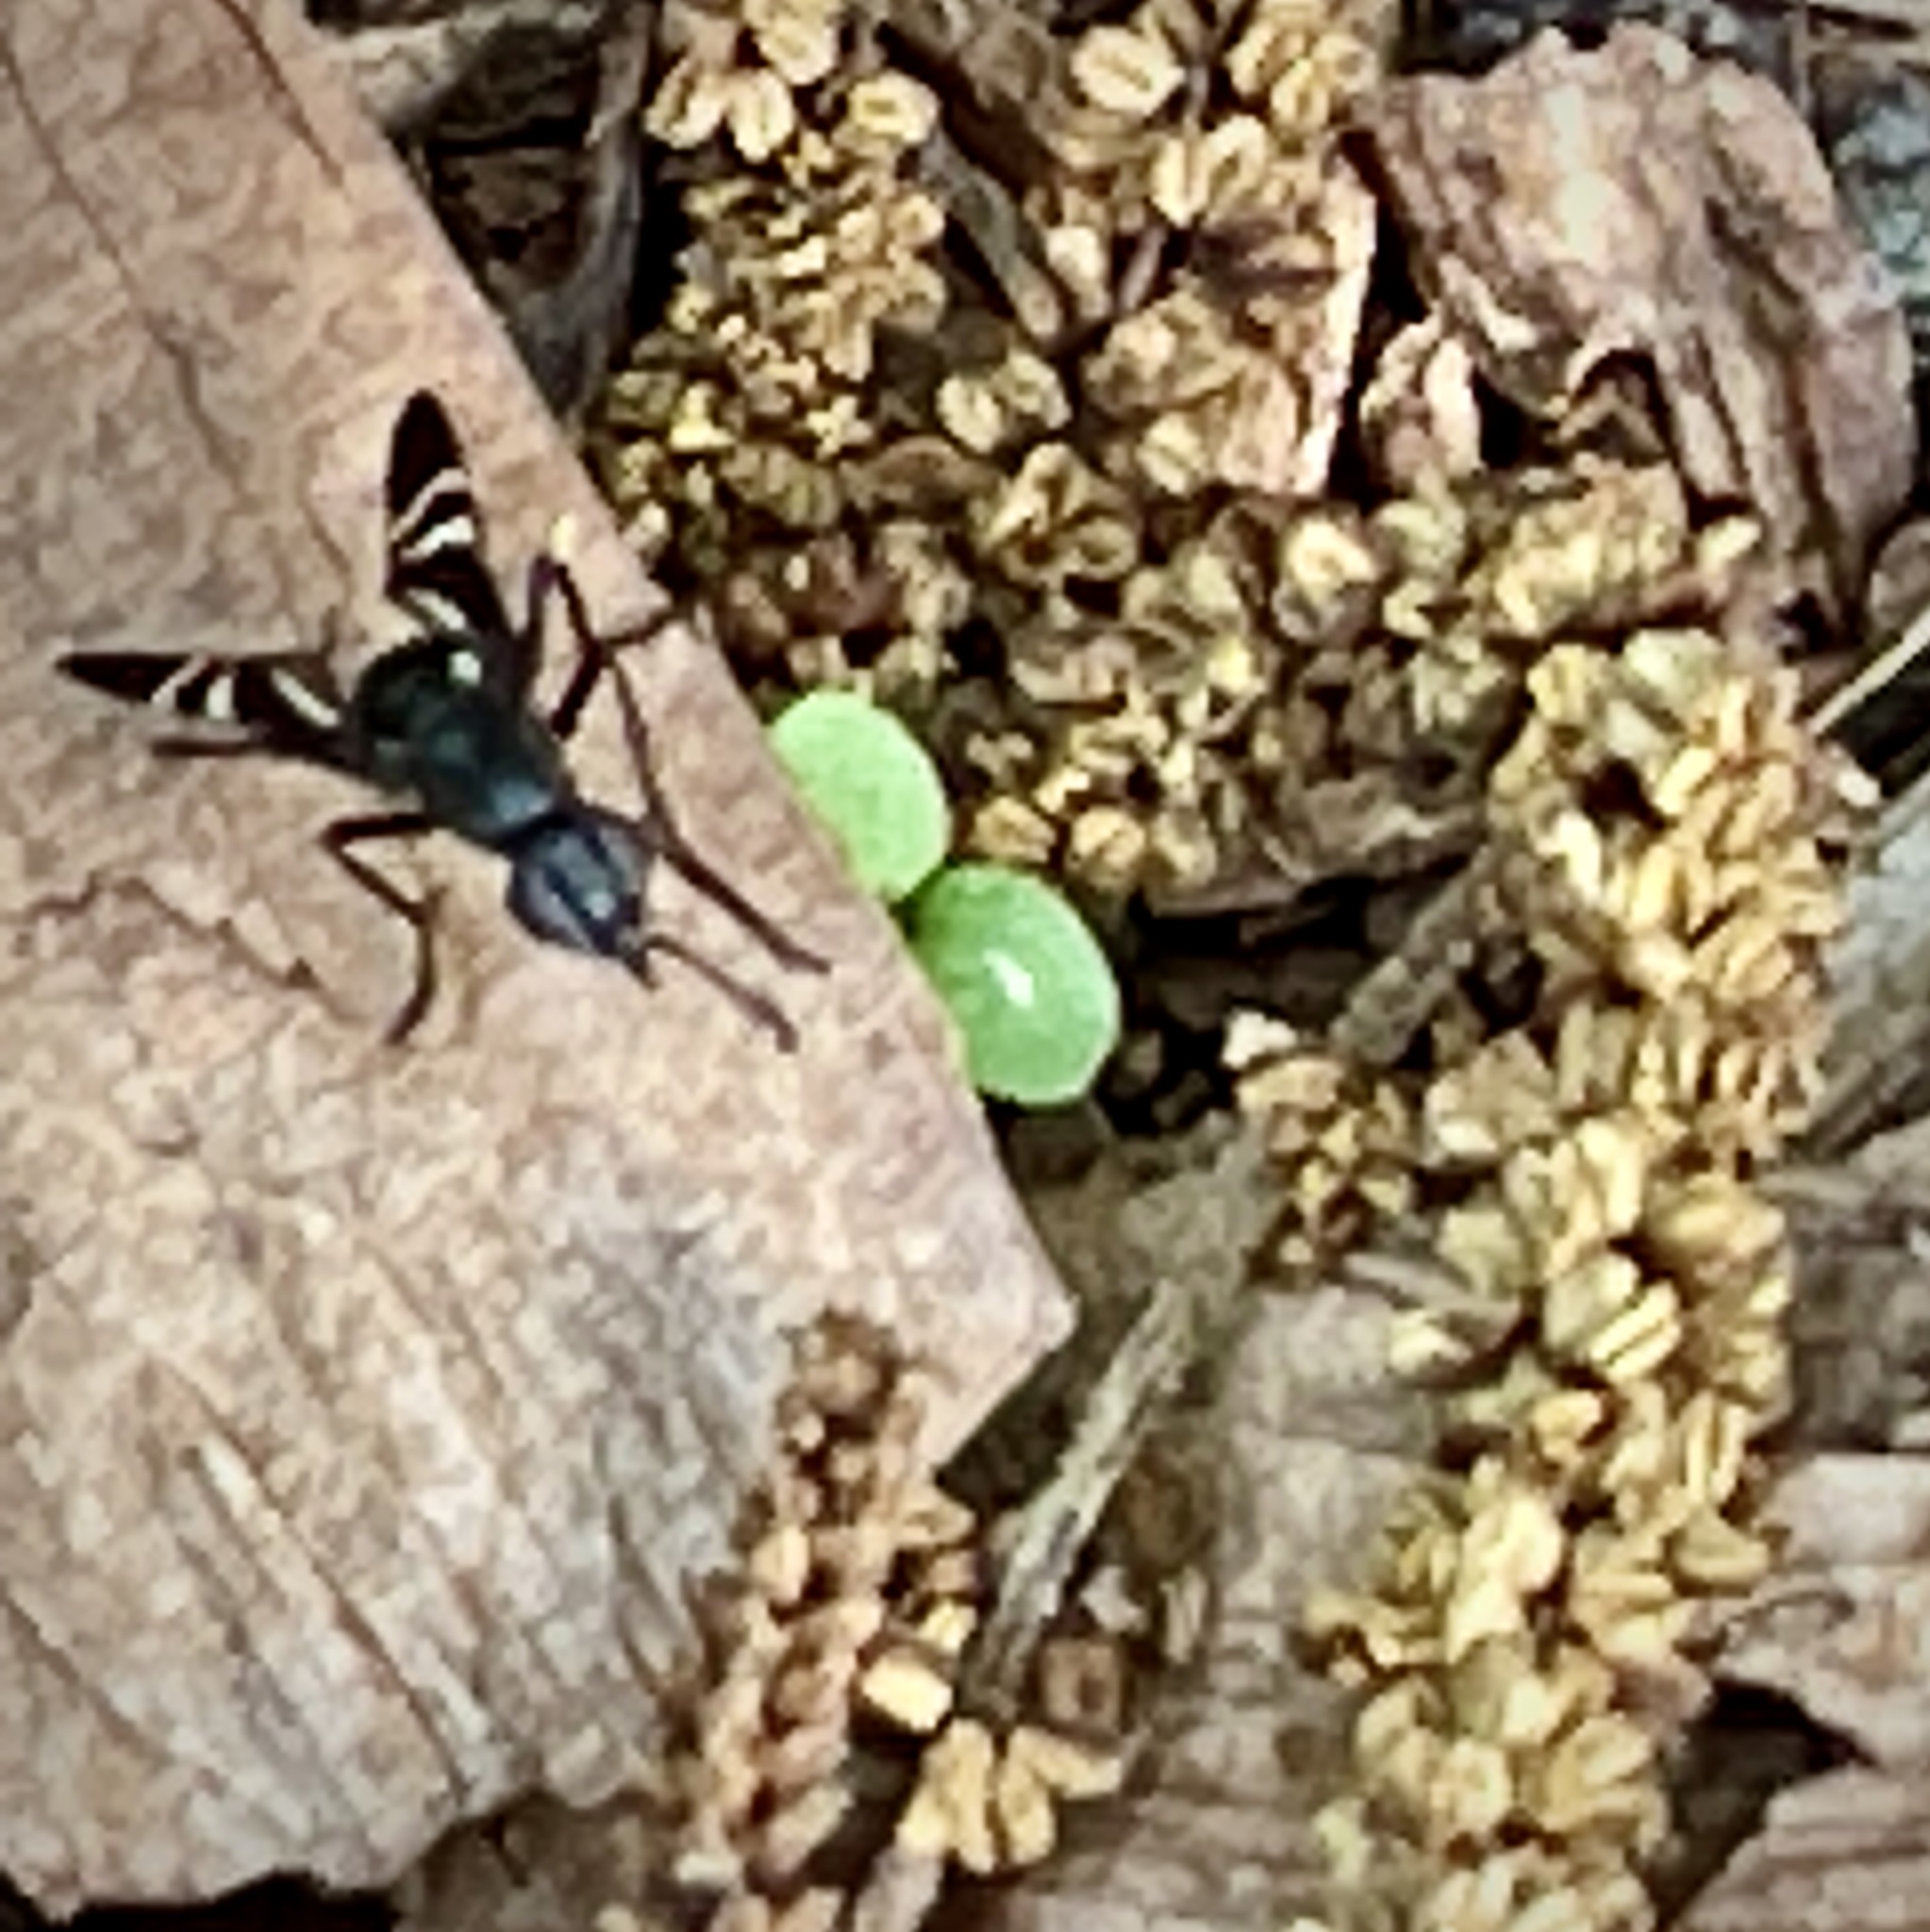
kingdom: Animalia
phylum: Arthropoda
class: Insecta
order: Diptera
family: Ulidiidae
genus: Tritoxa
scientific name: Tritoxa flexa
